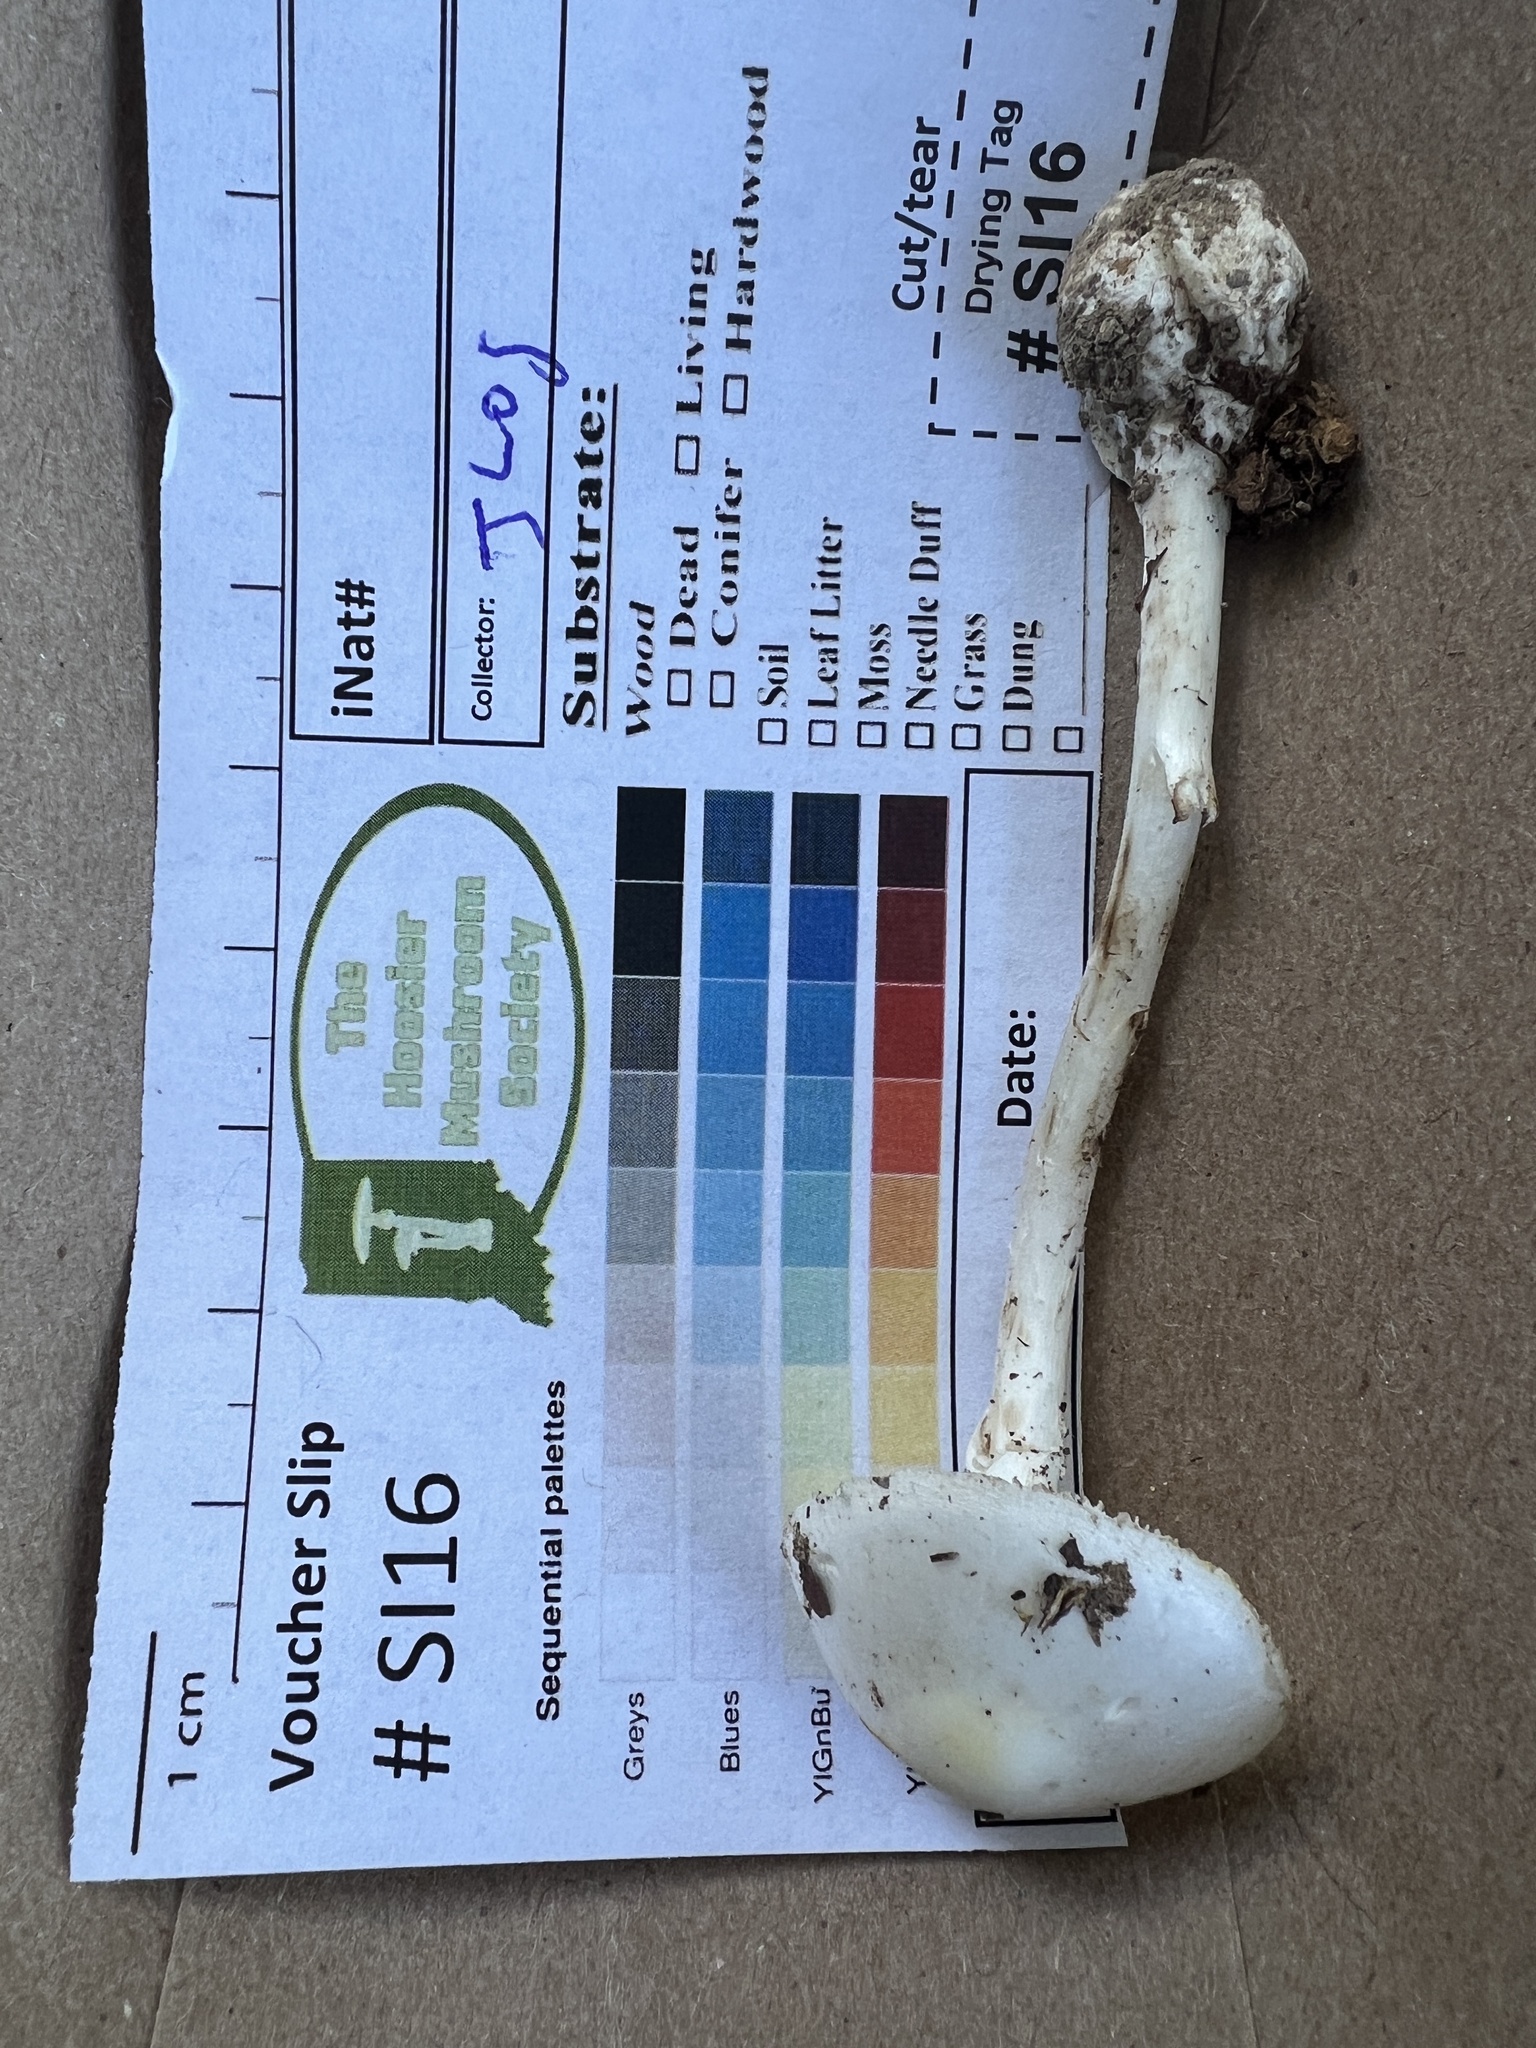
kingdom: Fungi
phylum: Basidiomycota
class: Agaricomycetes
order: Agaricales
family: Amanitaceae
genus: Amanita
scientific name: Amanita bisporigera
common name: Eastern north american destroying angel
